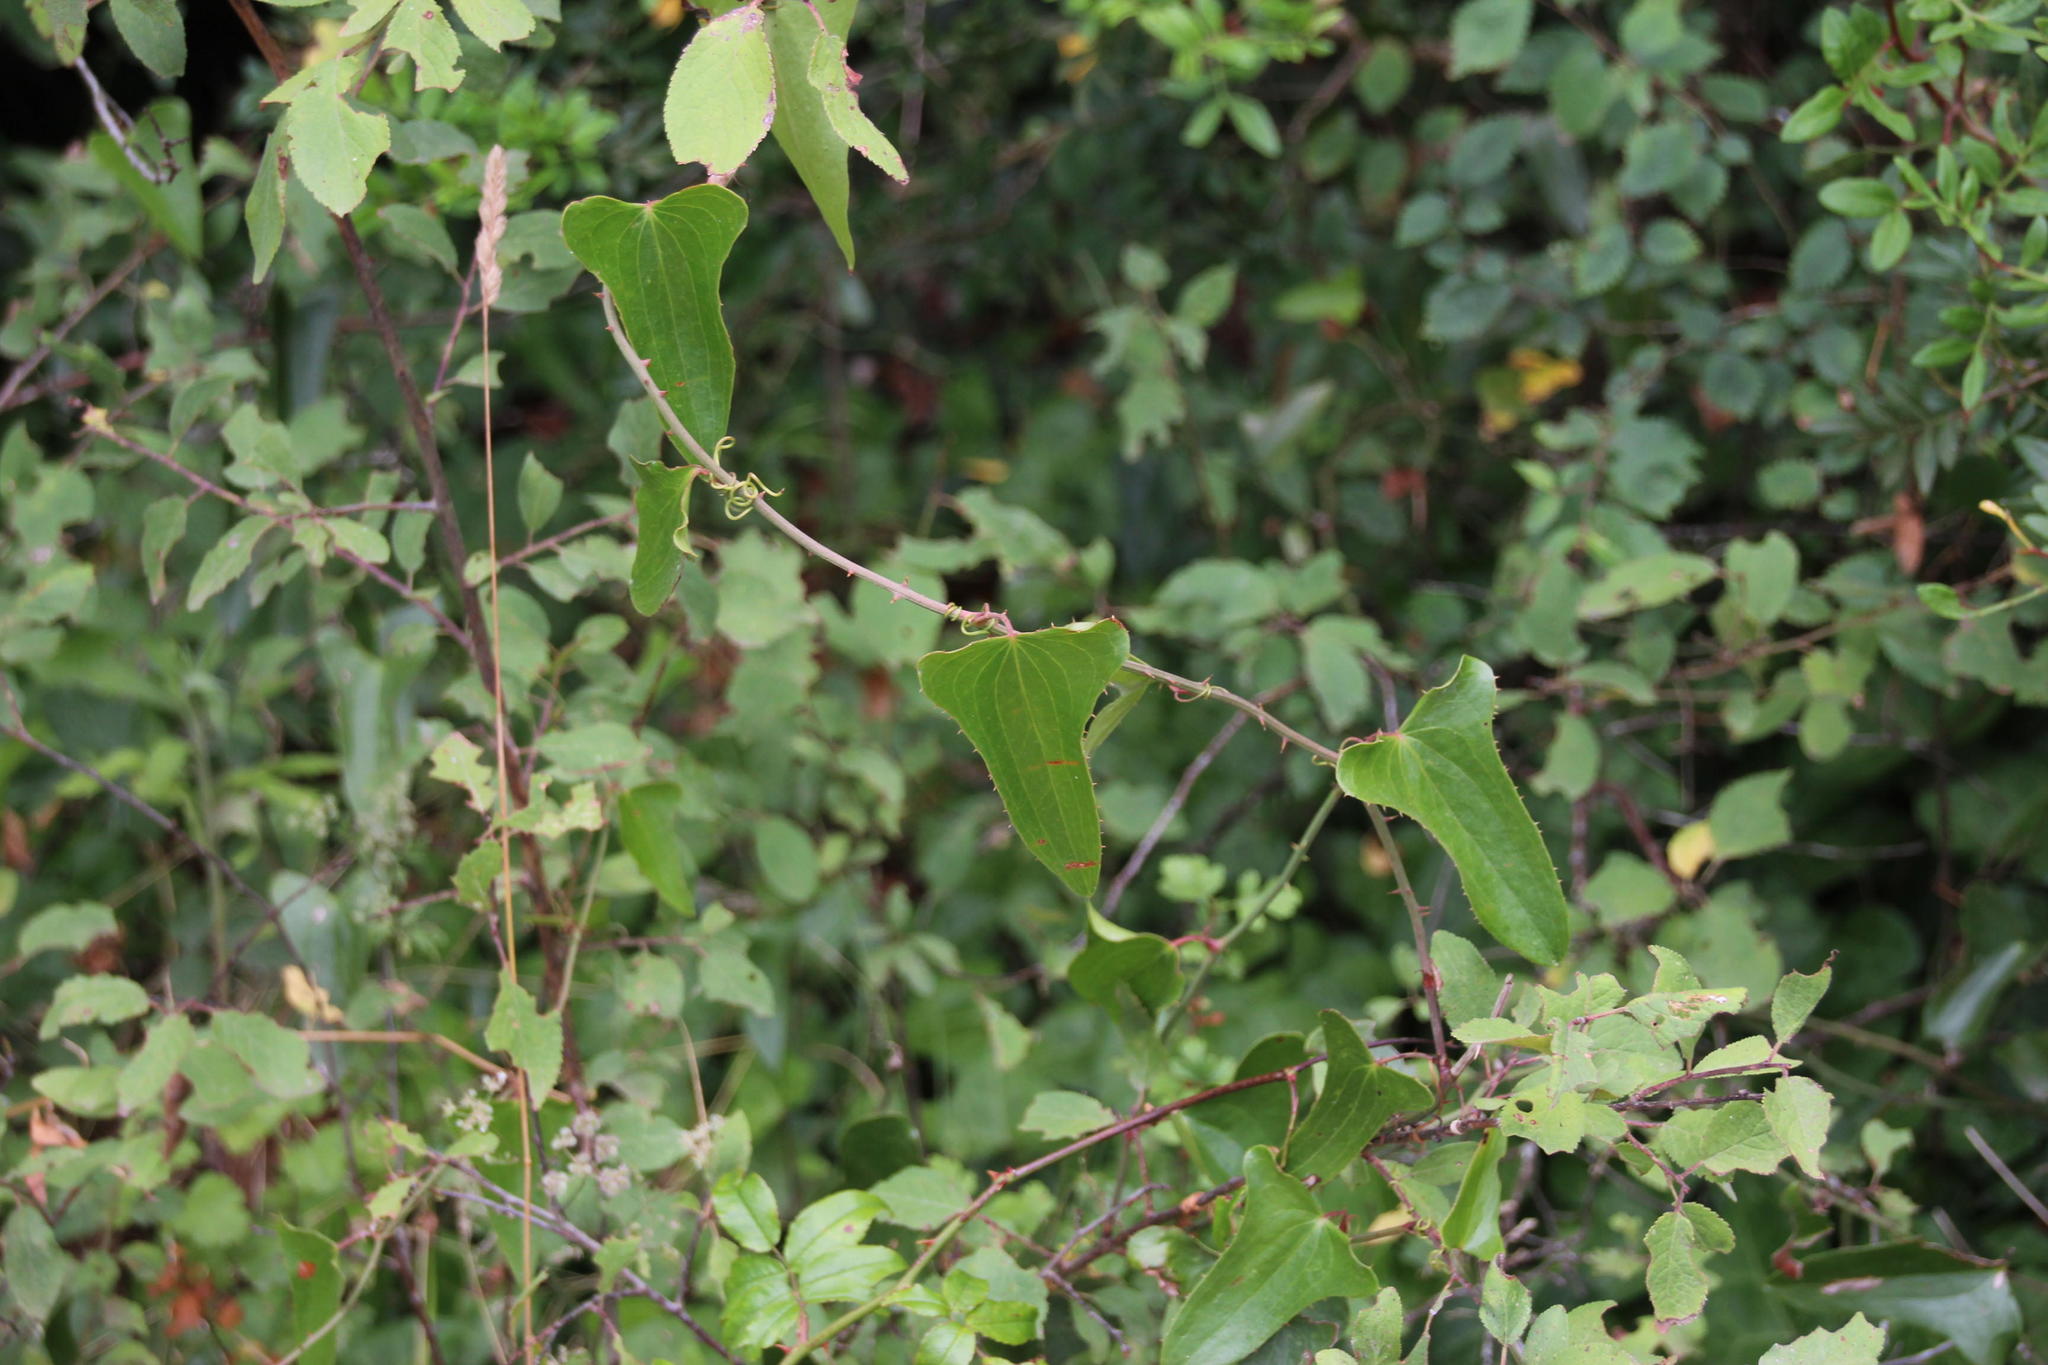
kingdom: Plantae
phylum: Tracheophyta
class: Liliopsida
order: Liliales
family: Smilacaceae
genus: Smilax
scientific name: Smilax aspera
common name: Common smilax
